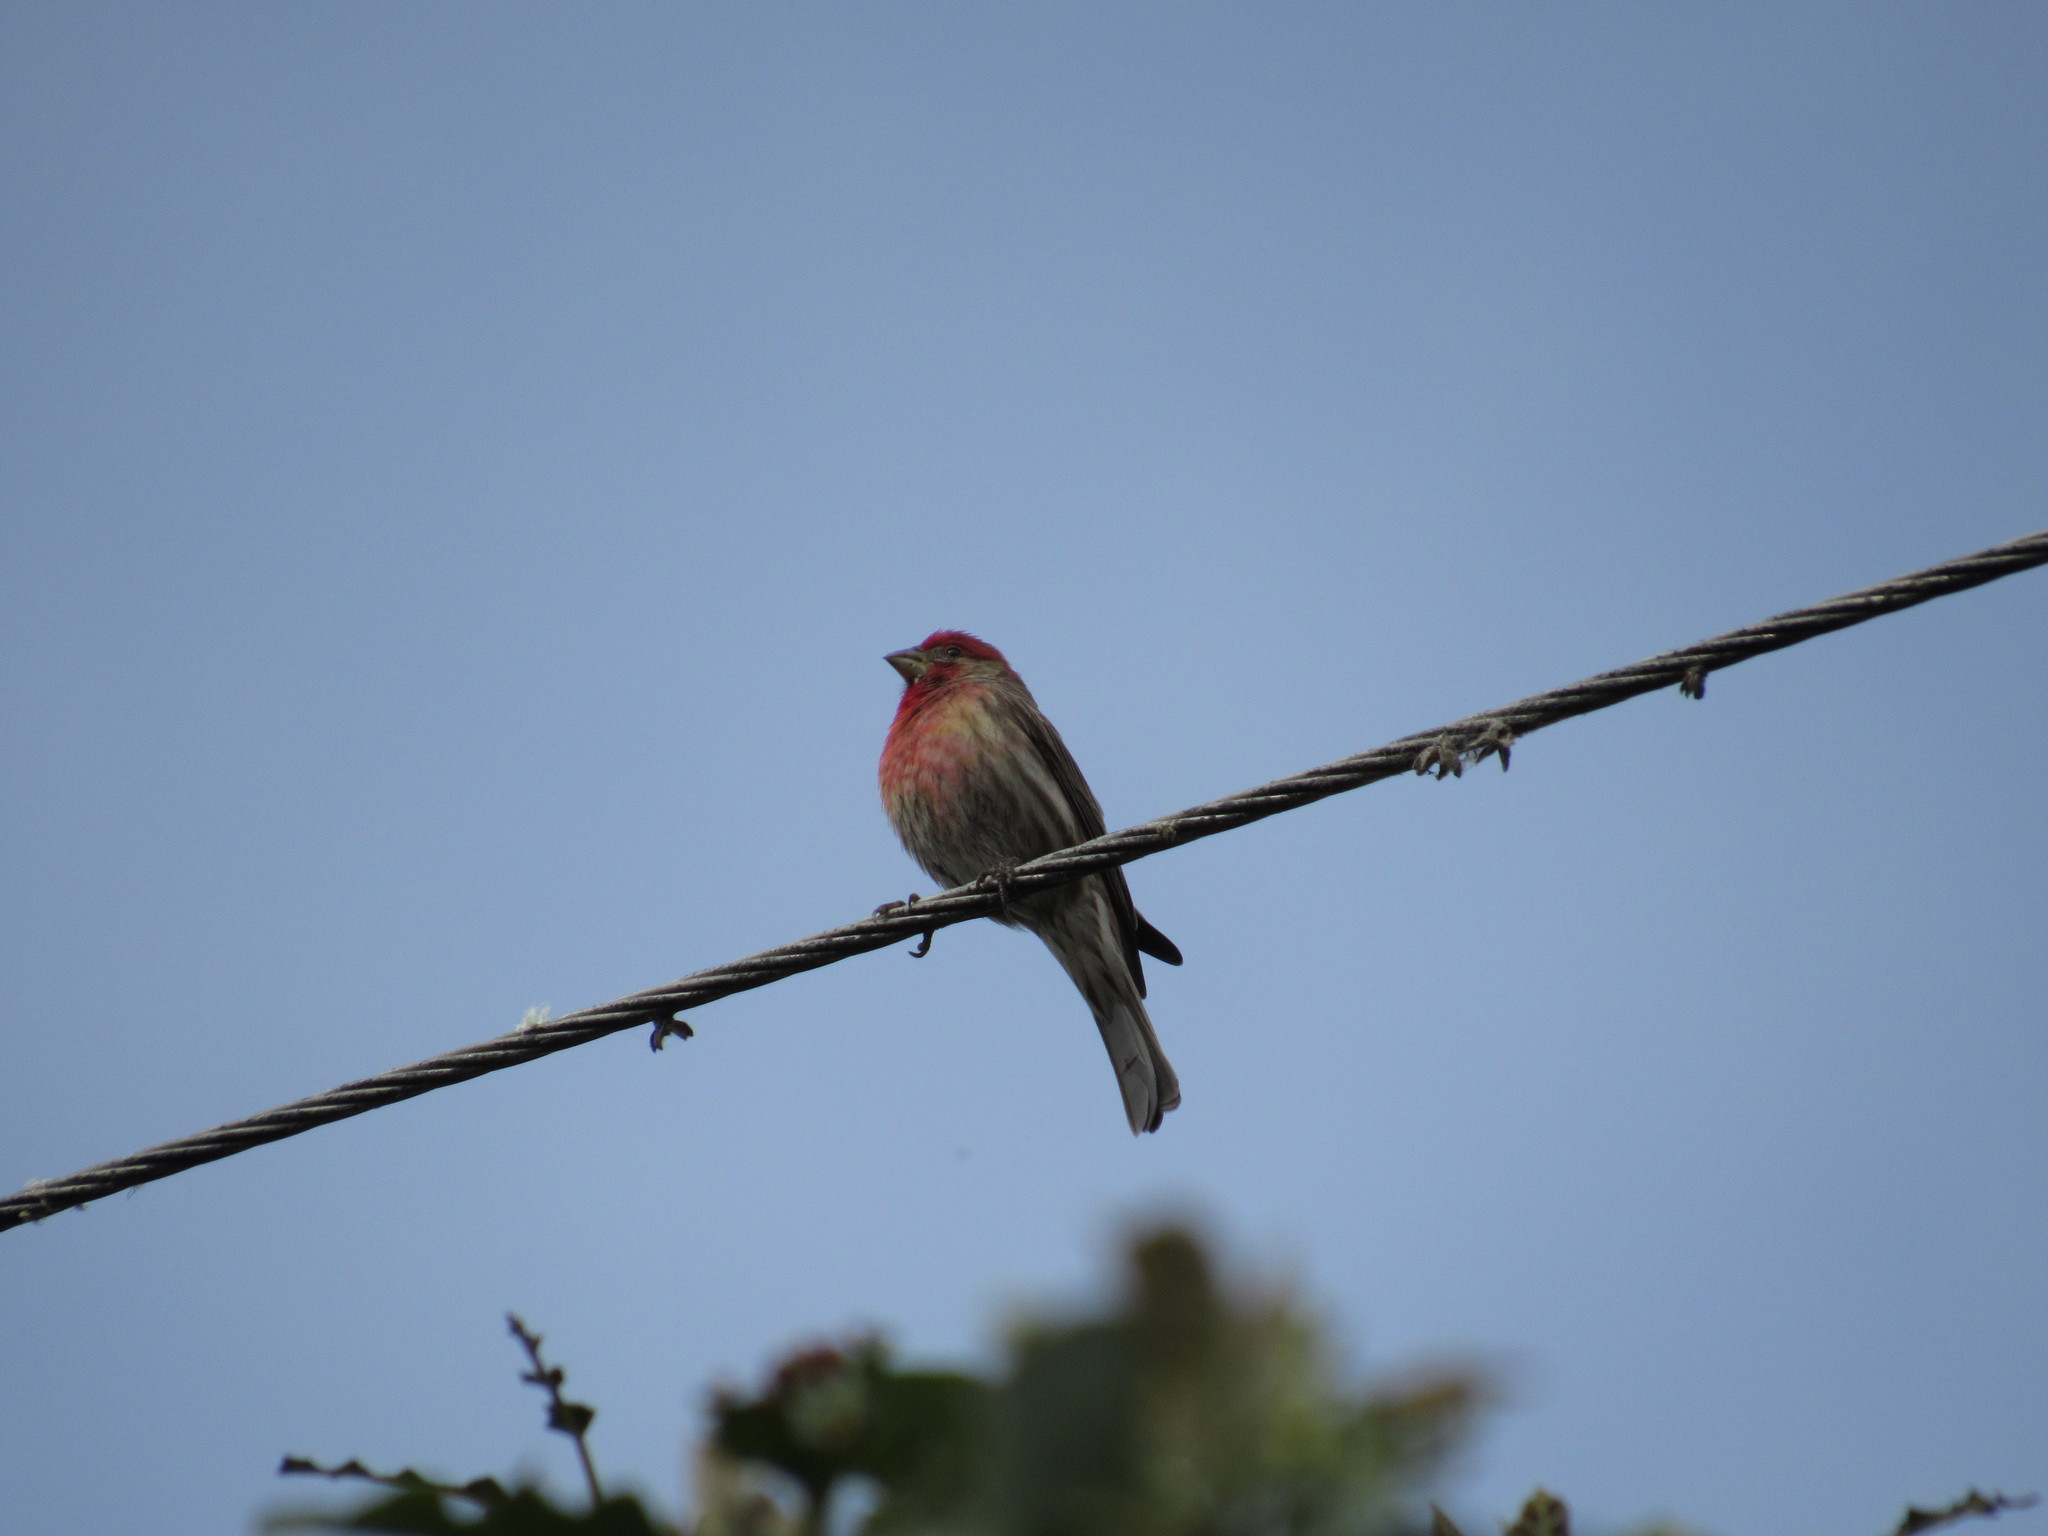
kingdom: Animalia
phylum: Chordata
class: Aves
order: Passeriformes
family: Fringillidae
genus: Haemorhous
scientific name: Haemorhous mexicanus
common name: House finch
